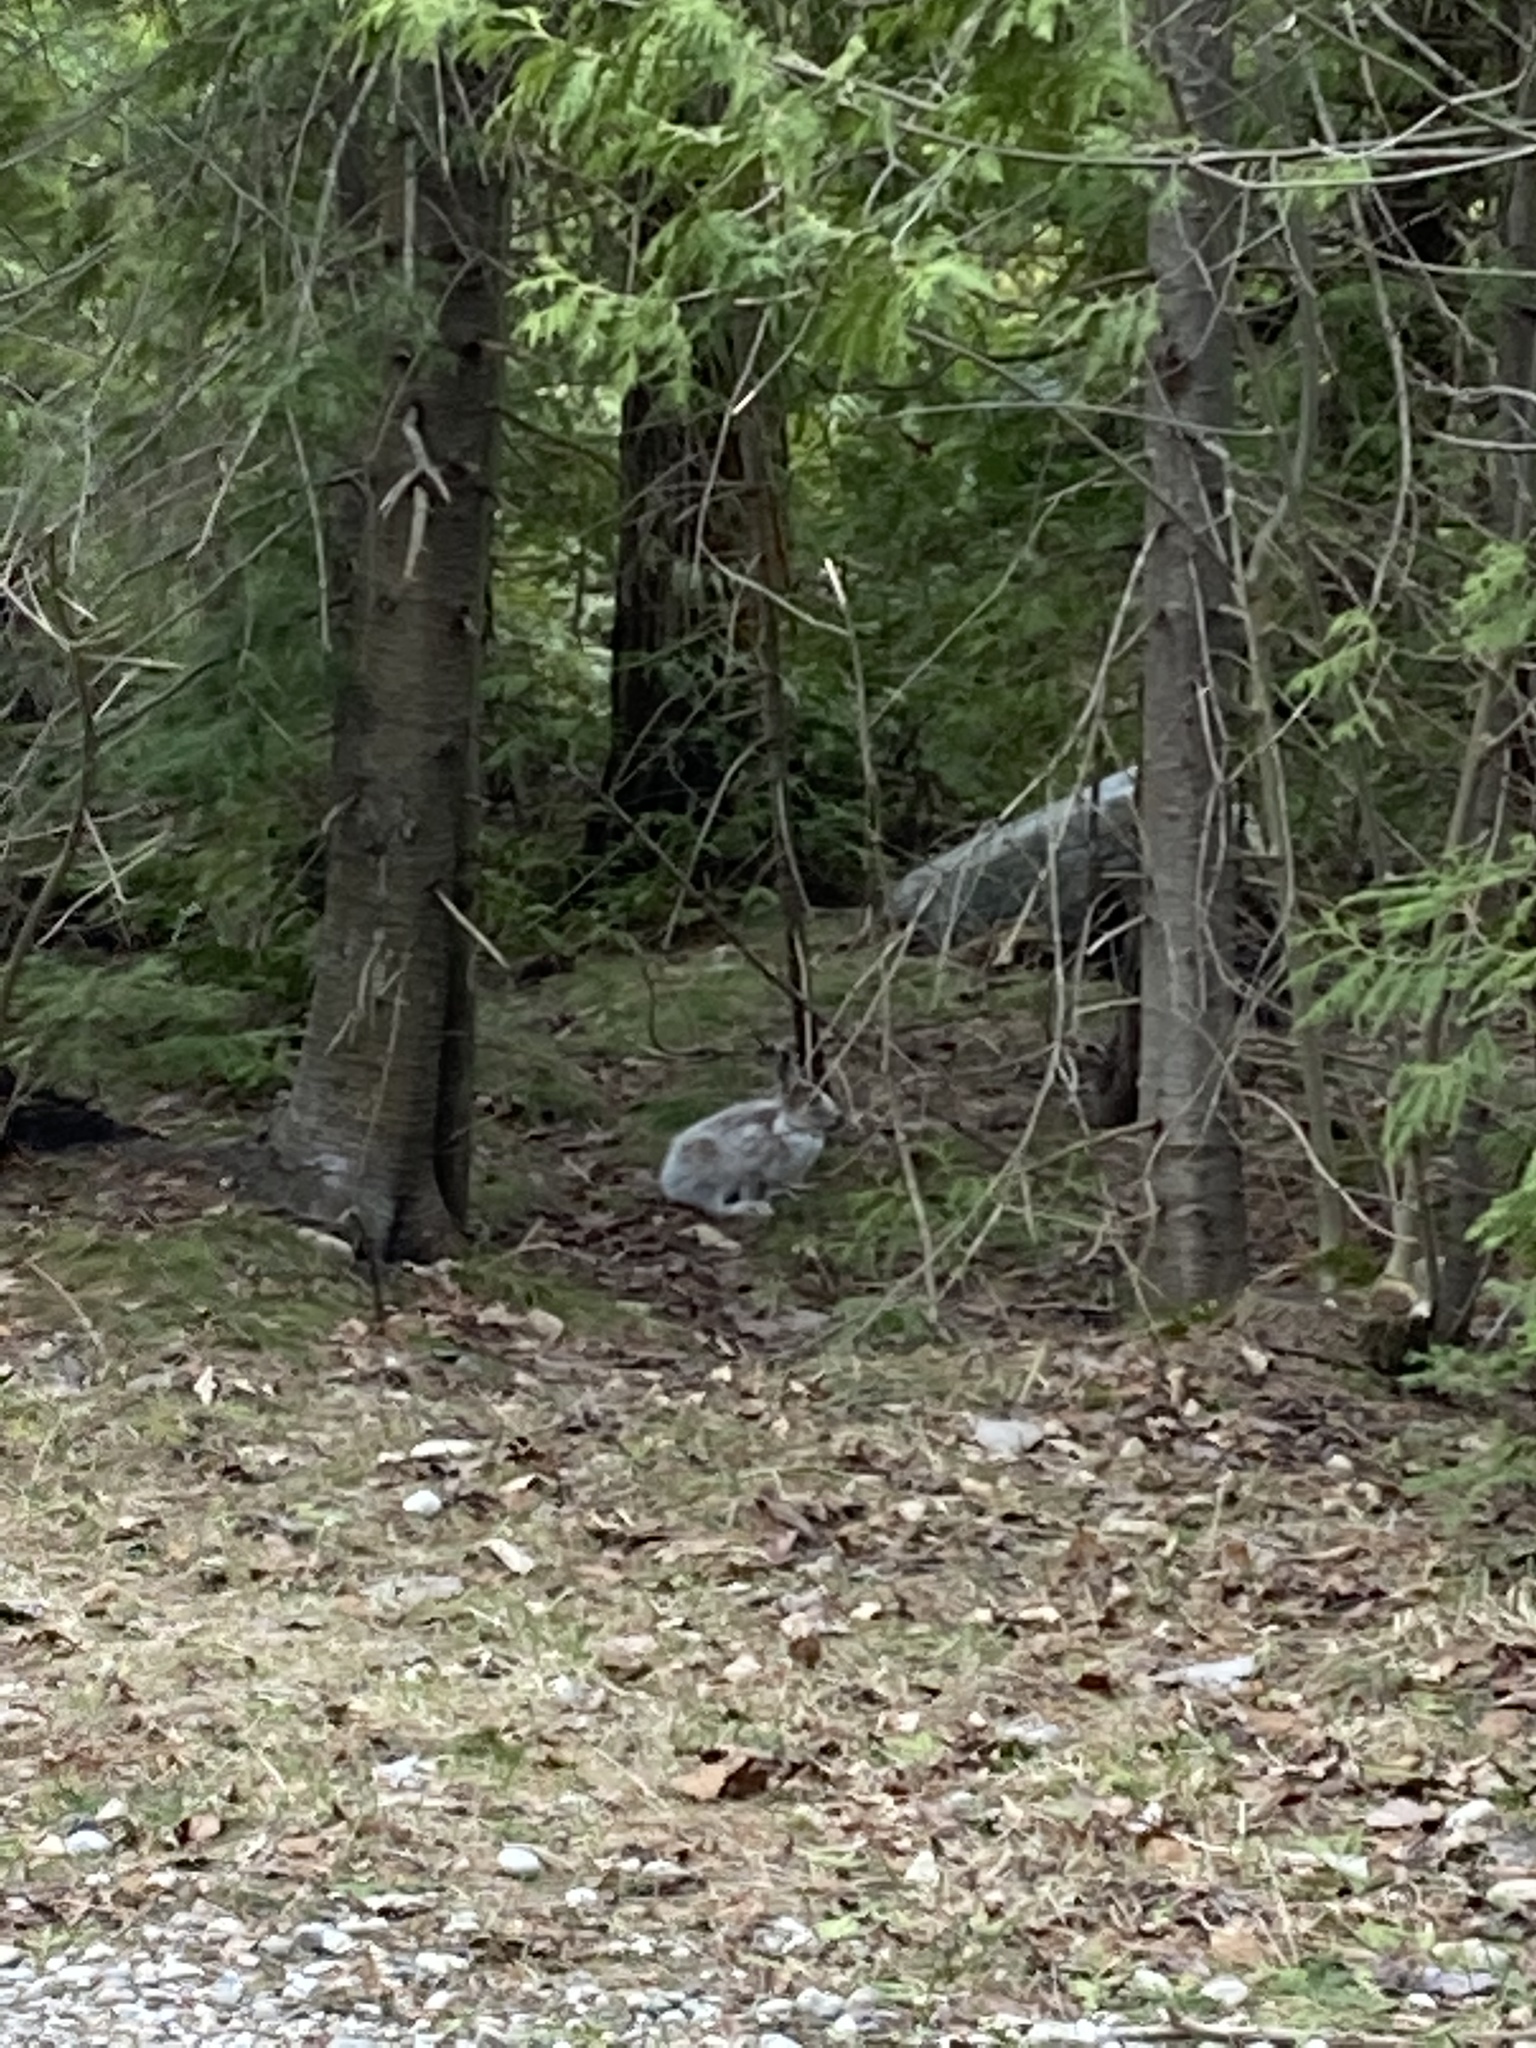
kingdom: Animalia
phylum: Chordata
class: Mammalia
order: Lagomorpha
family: Leporidae
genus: Lepus
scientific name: Lepus americanus
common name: Snowshoe hare
